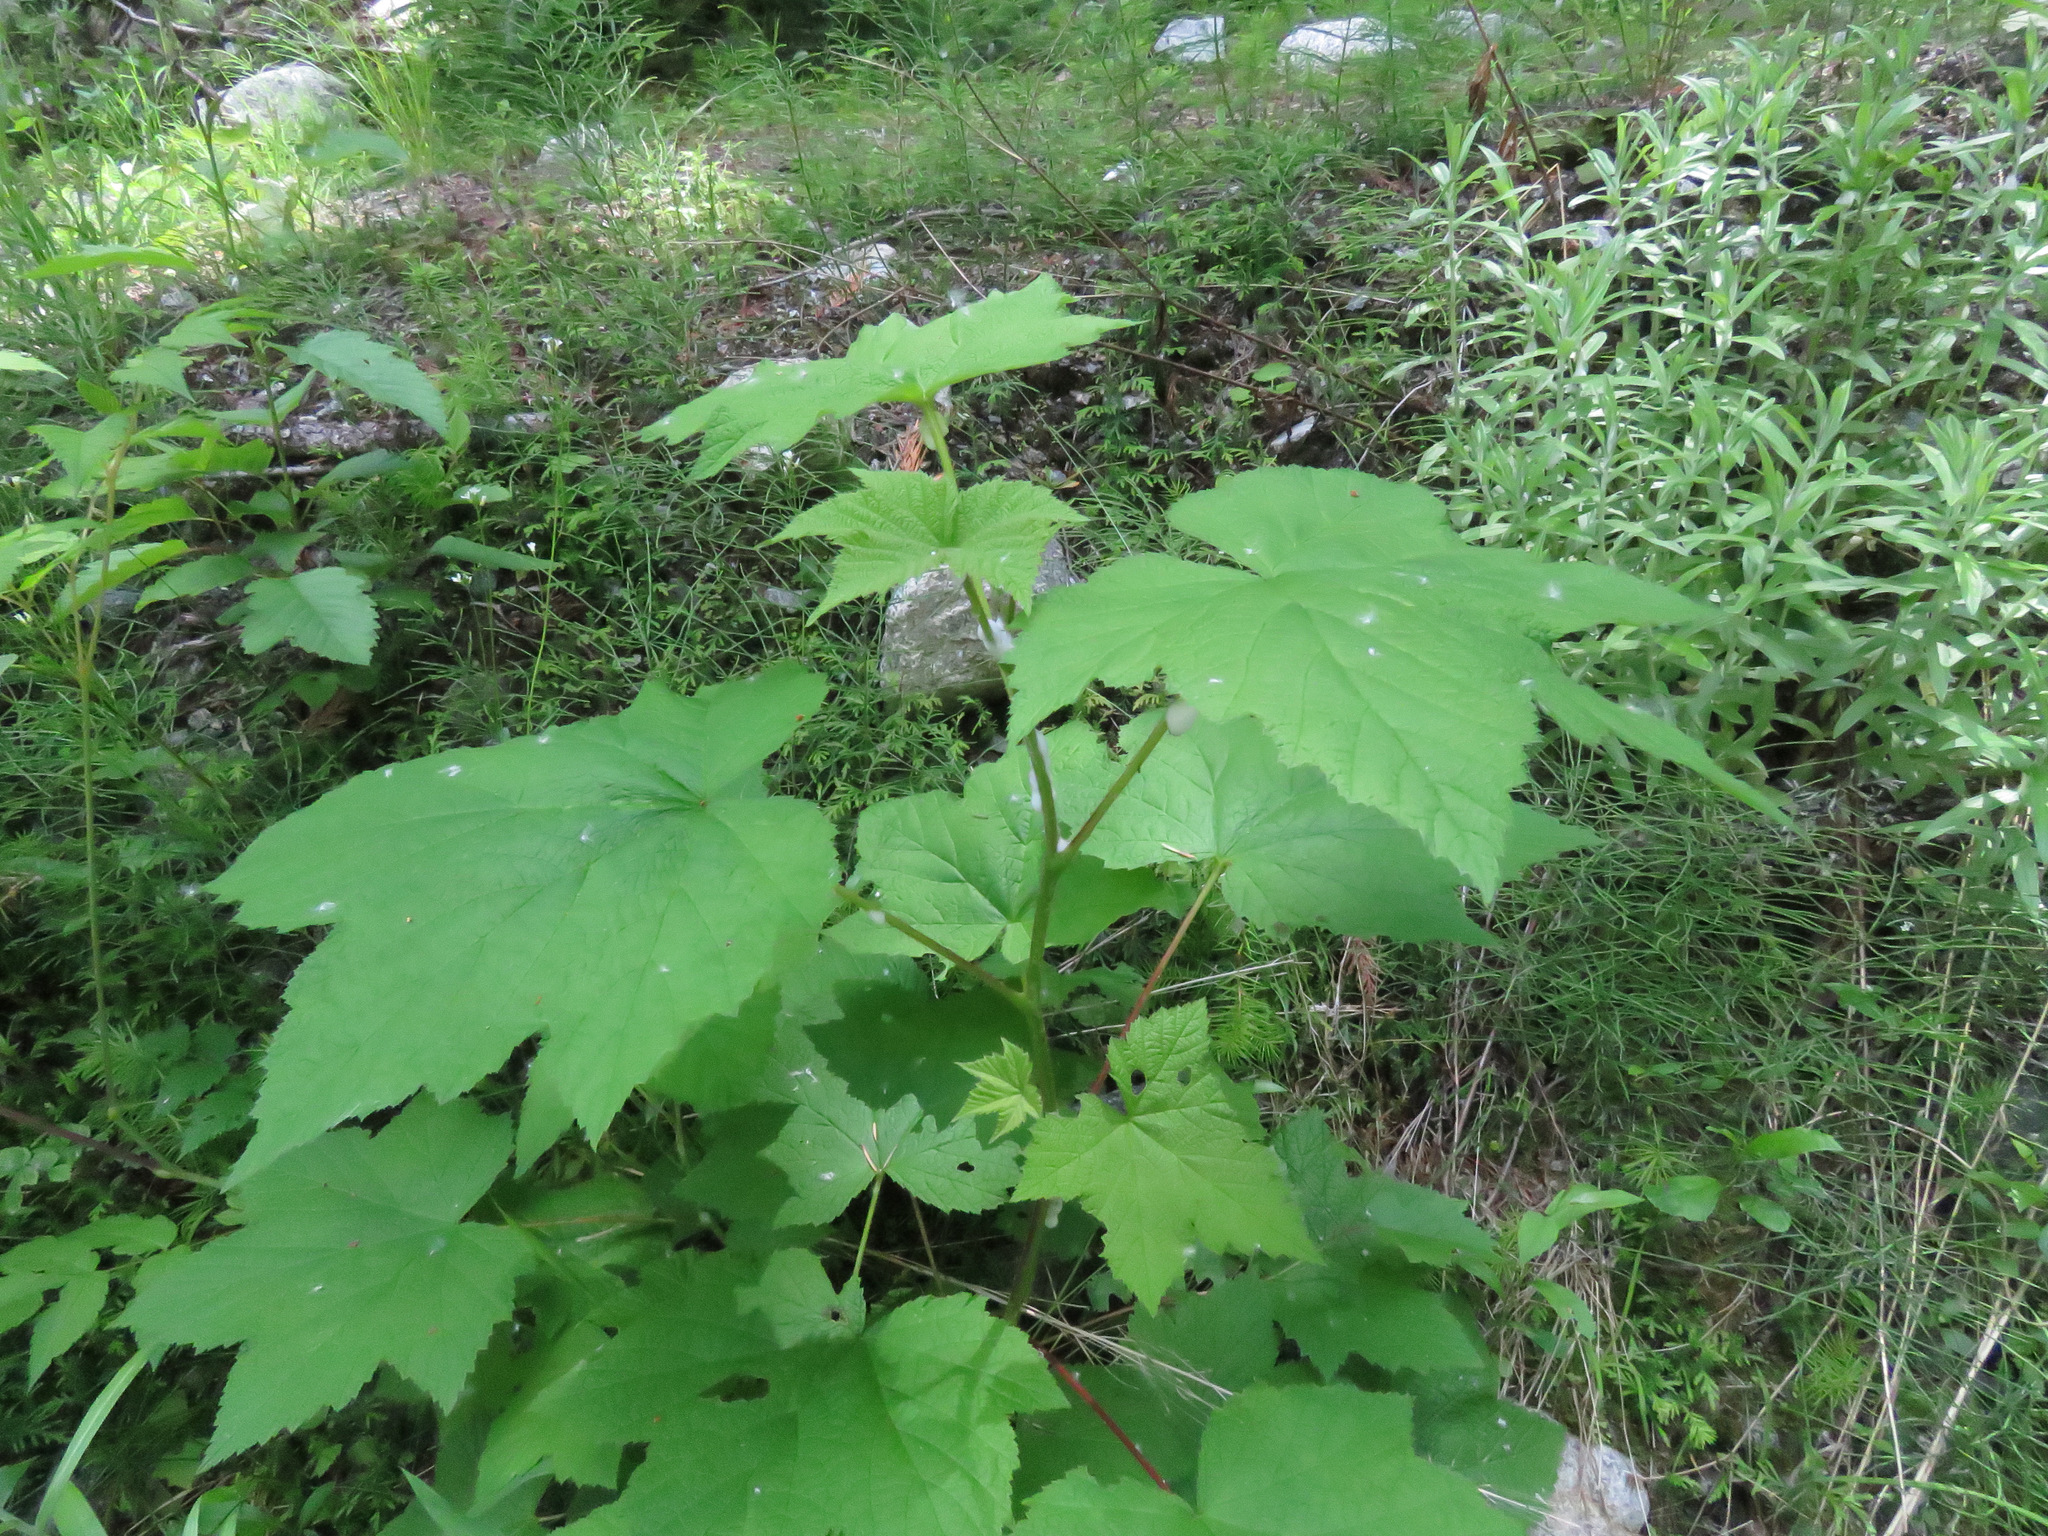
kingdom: Plantae
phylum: Tracheophyta
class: Magnoliopsida
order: Rosales
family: Rosaceae
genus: Rubus
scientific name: Rubus parviflorus
